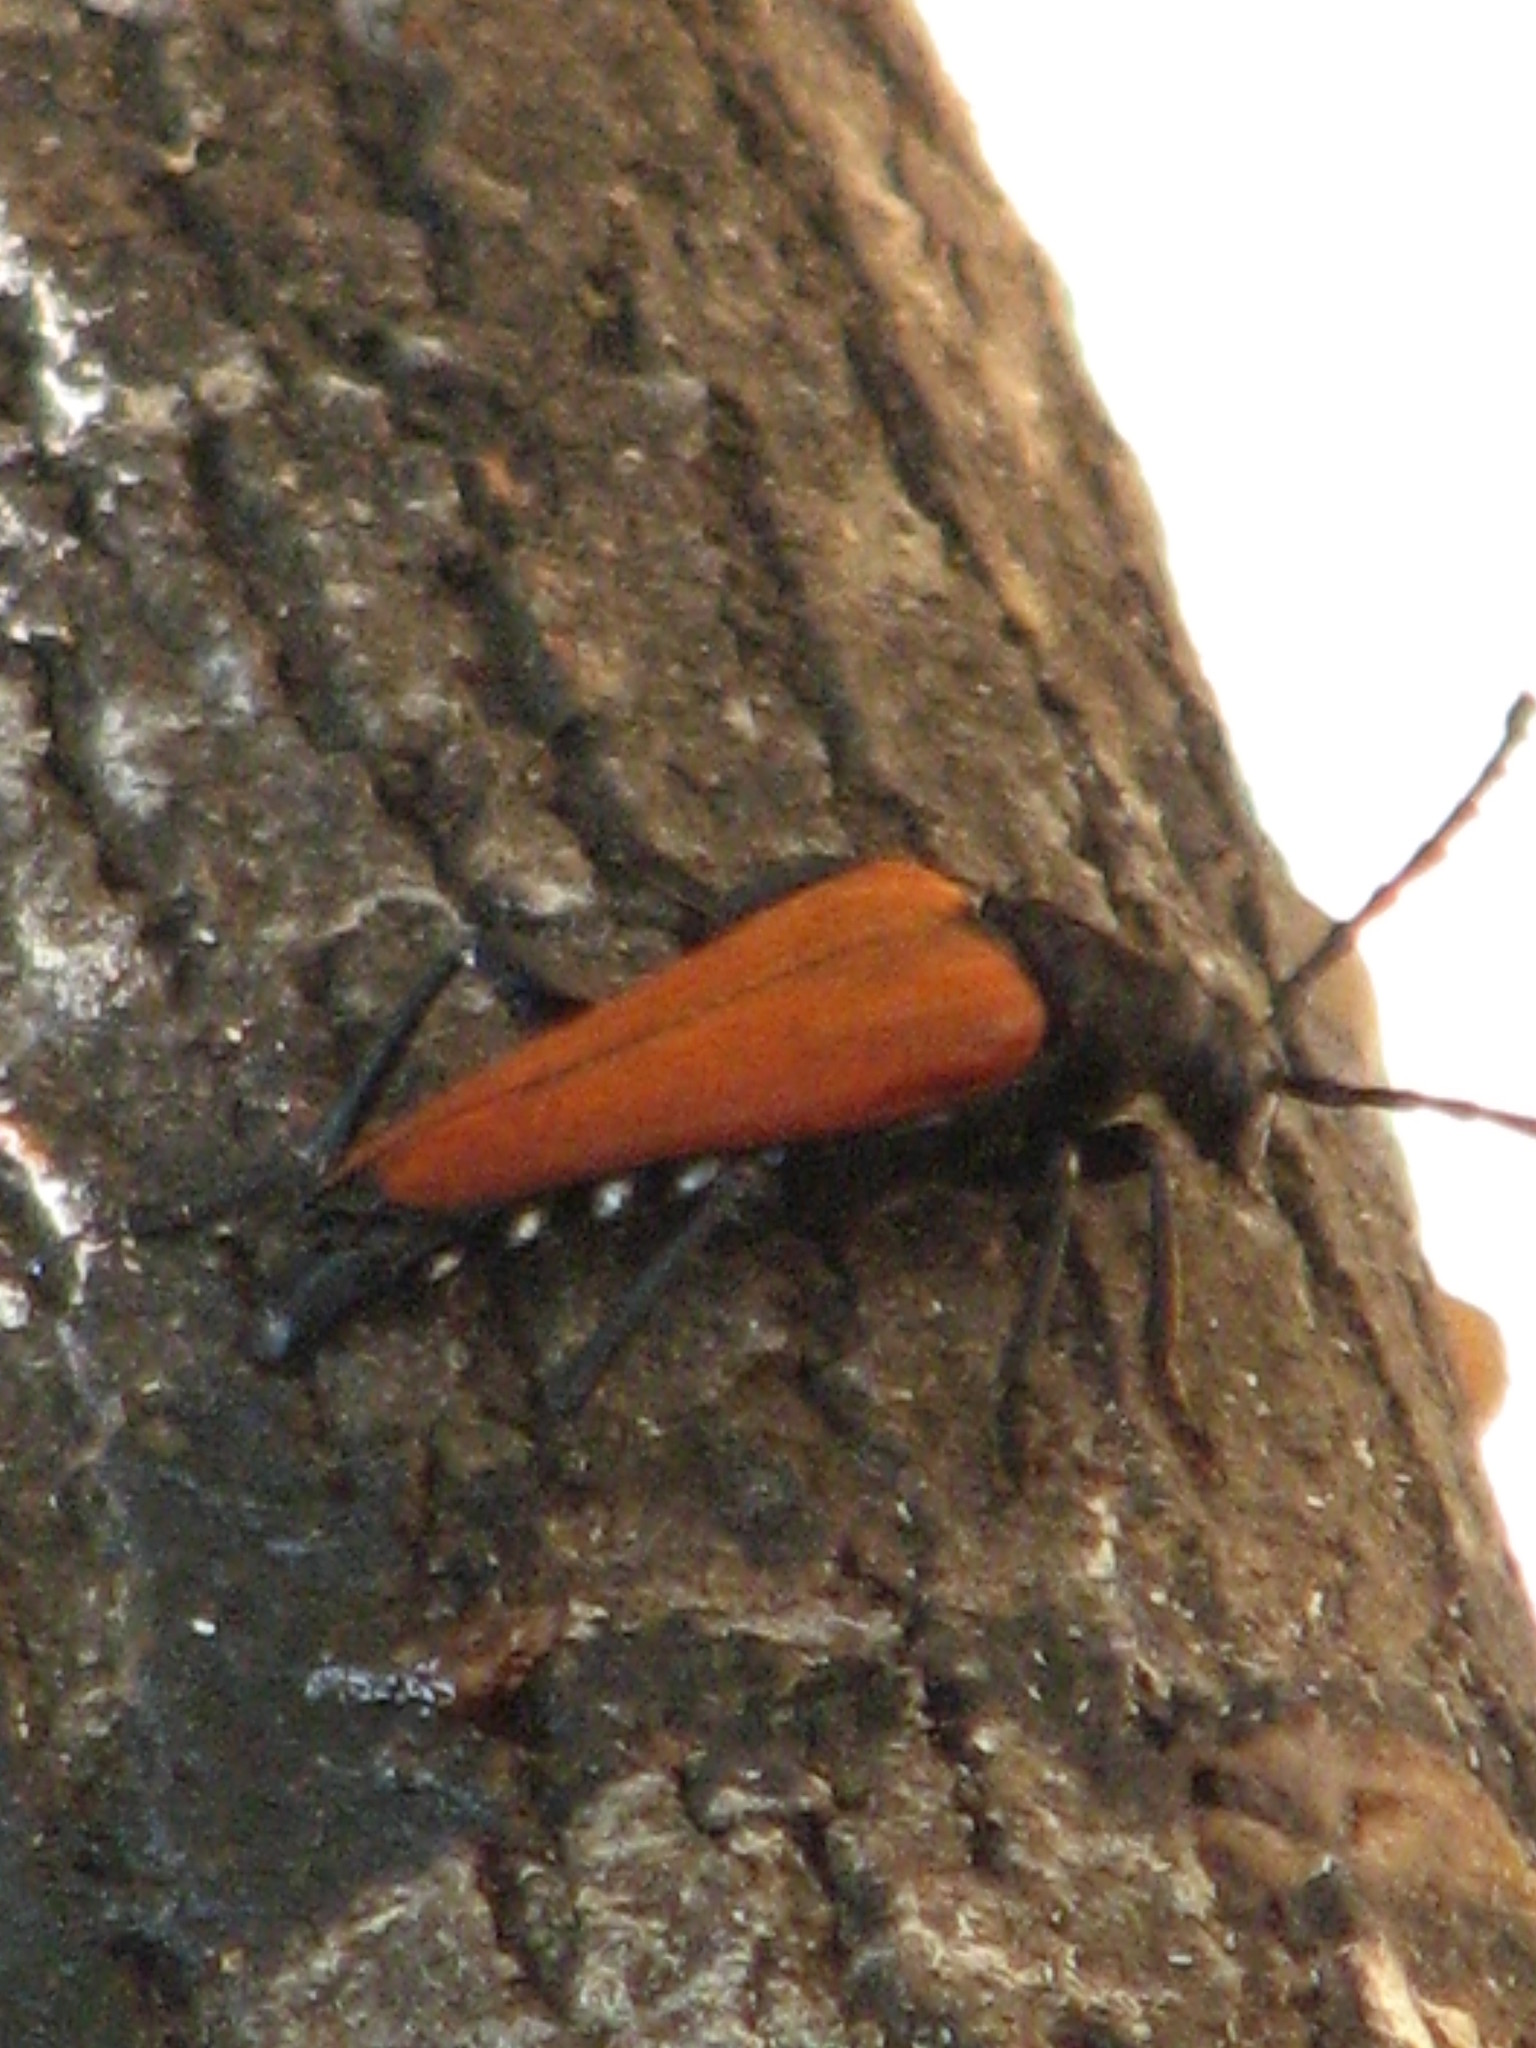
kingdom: Animalia
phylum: Arthropoda
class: Insecta
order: Coleoptera
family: Cerambycidae
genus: Stenelytrana
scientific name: Stenelytrana gigas
